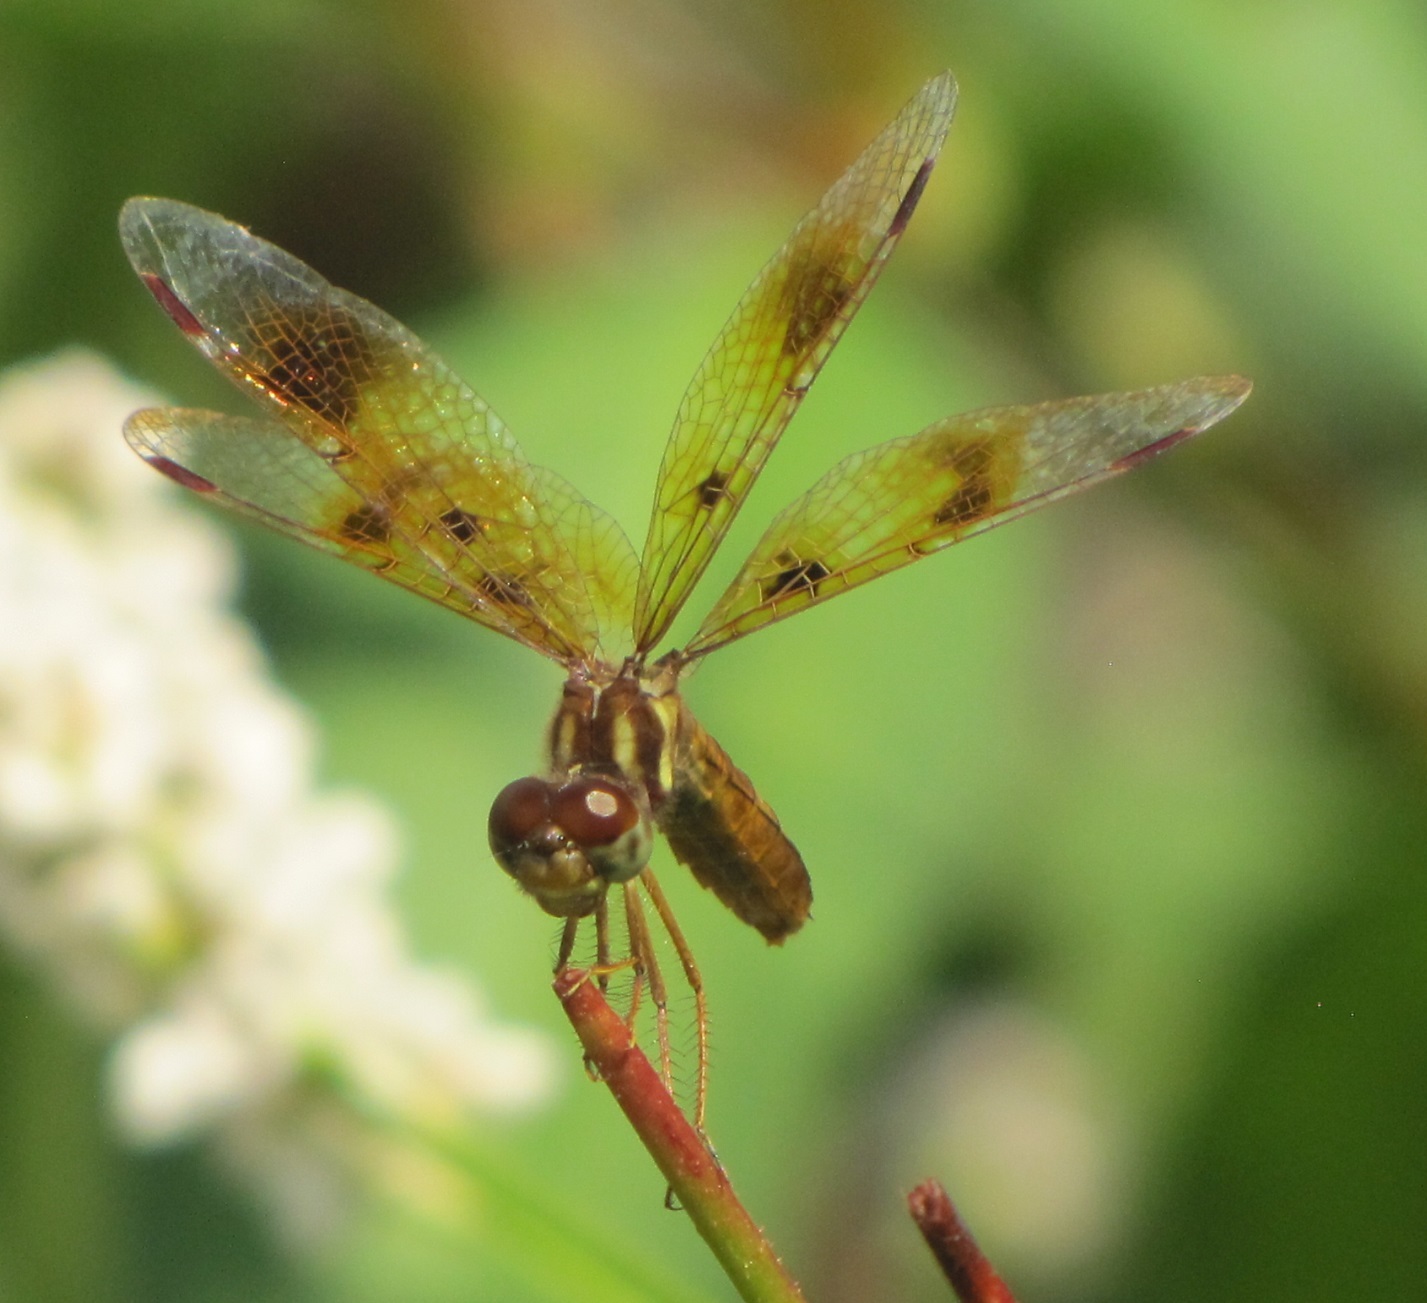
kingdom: Animalia
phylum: Arthropoda
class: Insecta
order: Odonata
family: Libellulidae
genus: Perithemis
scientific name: Perithemis tenera
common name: Eastern amberwing
